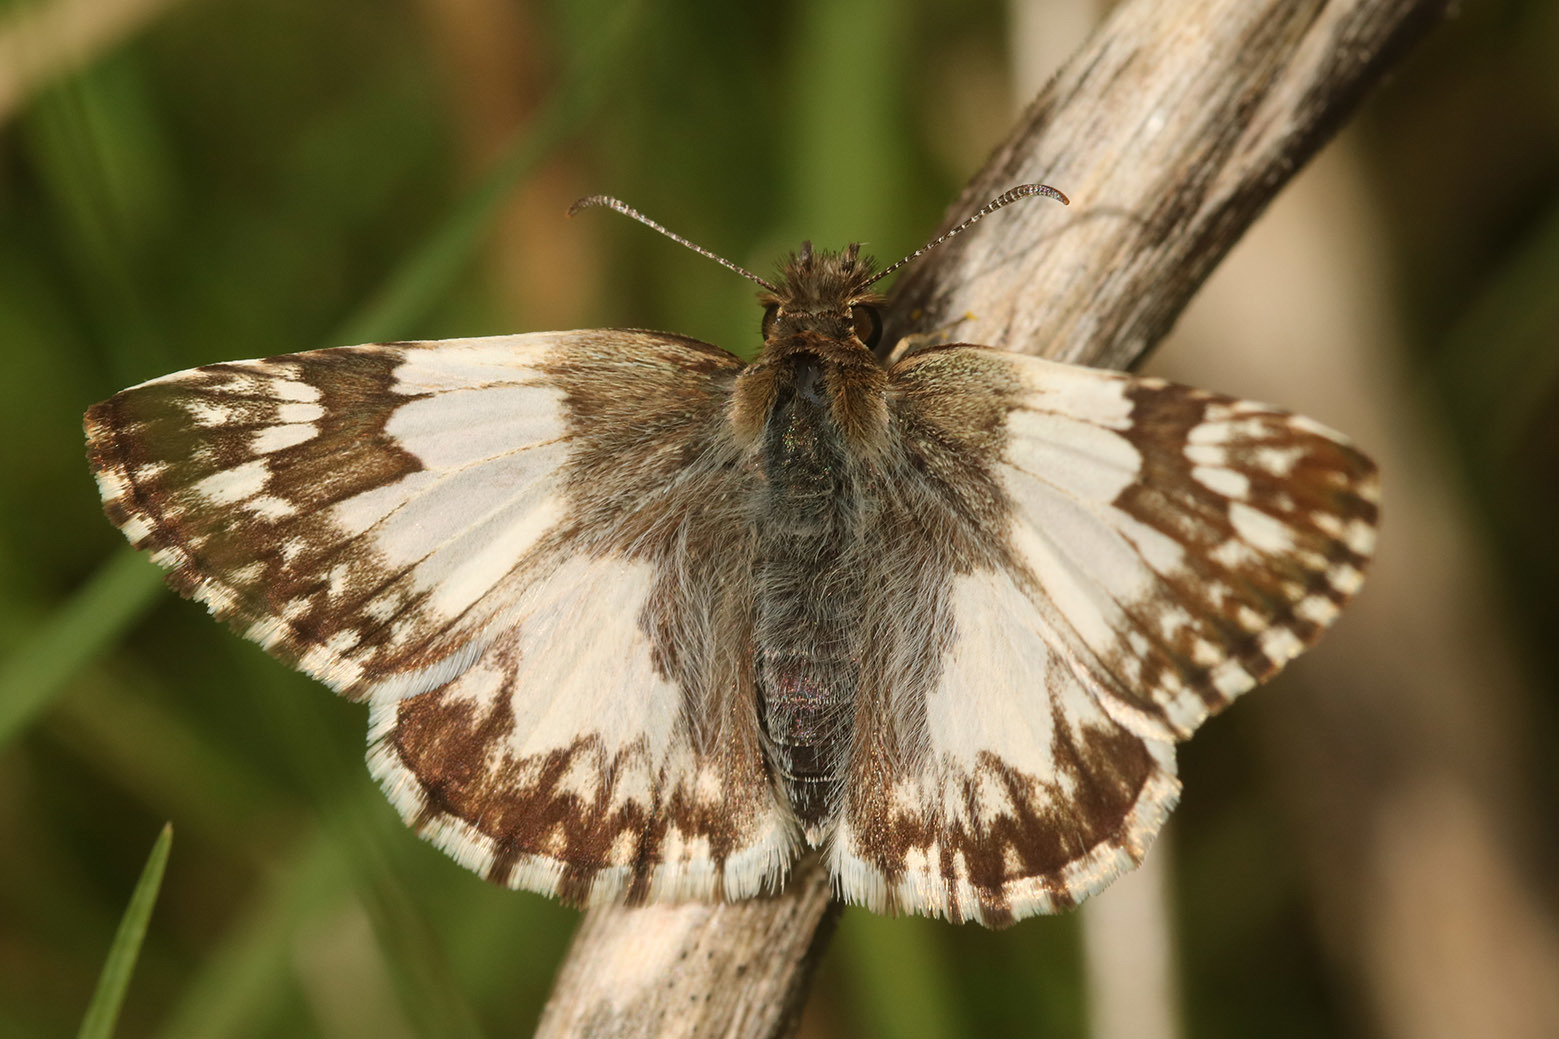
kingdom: Animalia
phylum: Arthropoda
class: Insecta
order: Lepidoptera
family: Hesperiidae
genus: Heliopetes
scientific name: Heliopetes omrina
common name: Stained white-skipper
